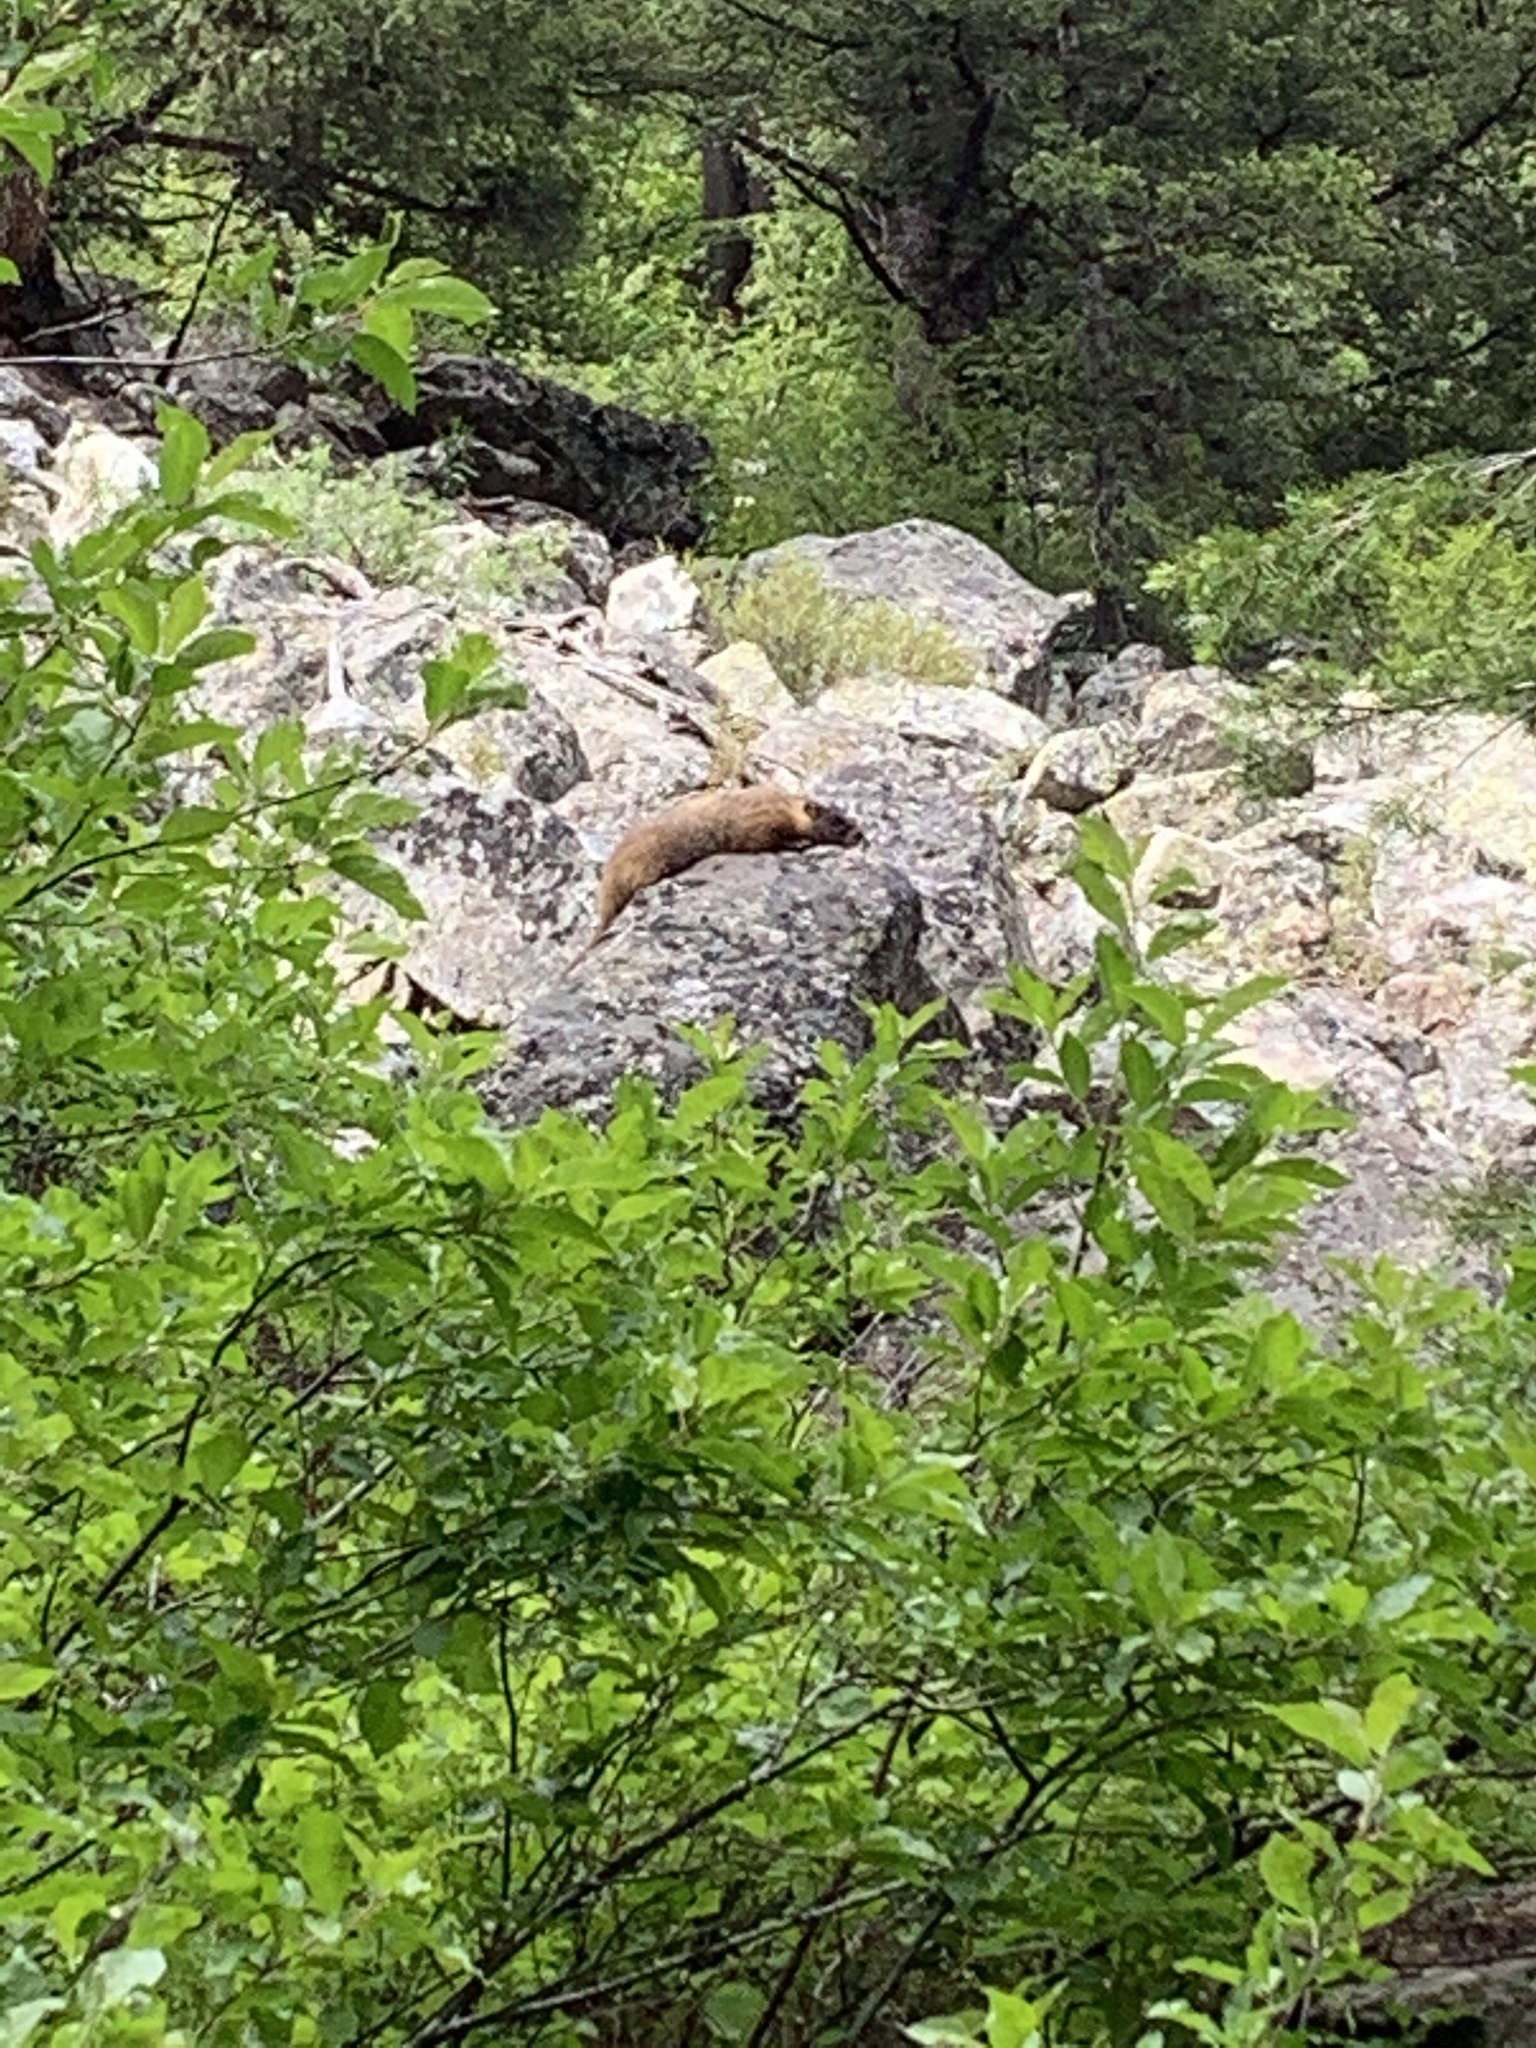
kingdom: Animalia
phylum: Chordata
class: Mammalia
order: Rodentia
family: Sciuridae
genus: Marmota
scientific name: Marmota flaviventris
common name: Yellow-bellied marmot
